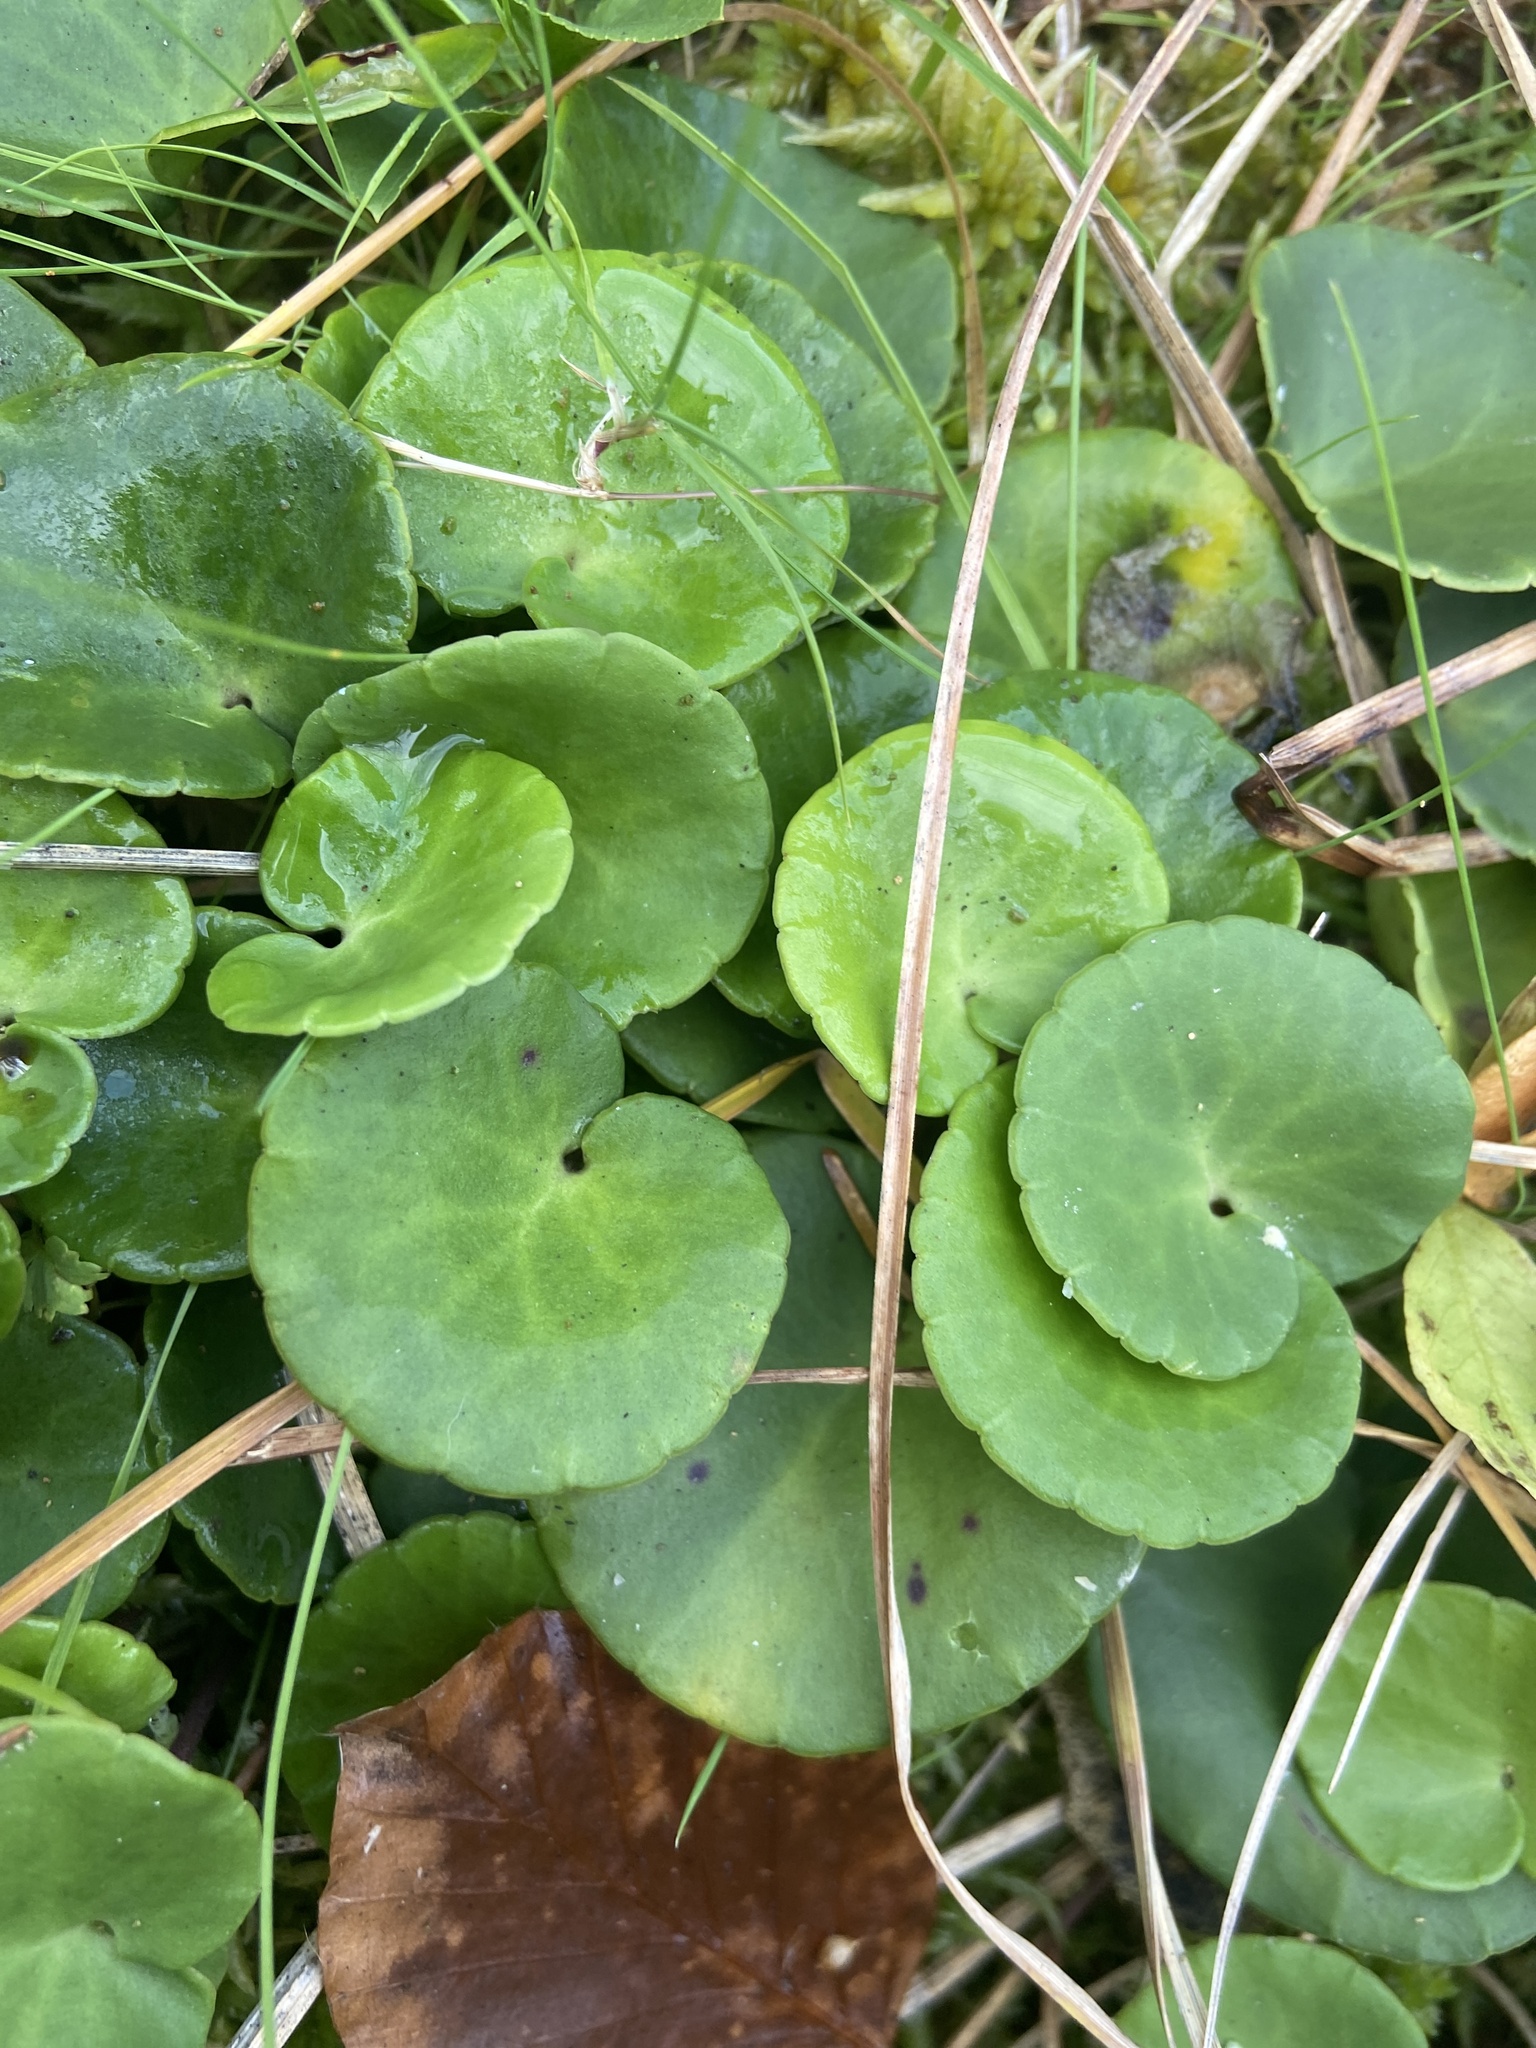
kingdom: Plantae
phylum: Tracheophyta
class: Magnoliopsida
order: Ericales
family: Primulaceae
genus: Soldanella
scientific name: Soldanella montana
